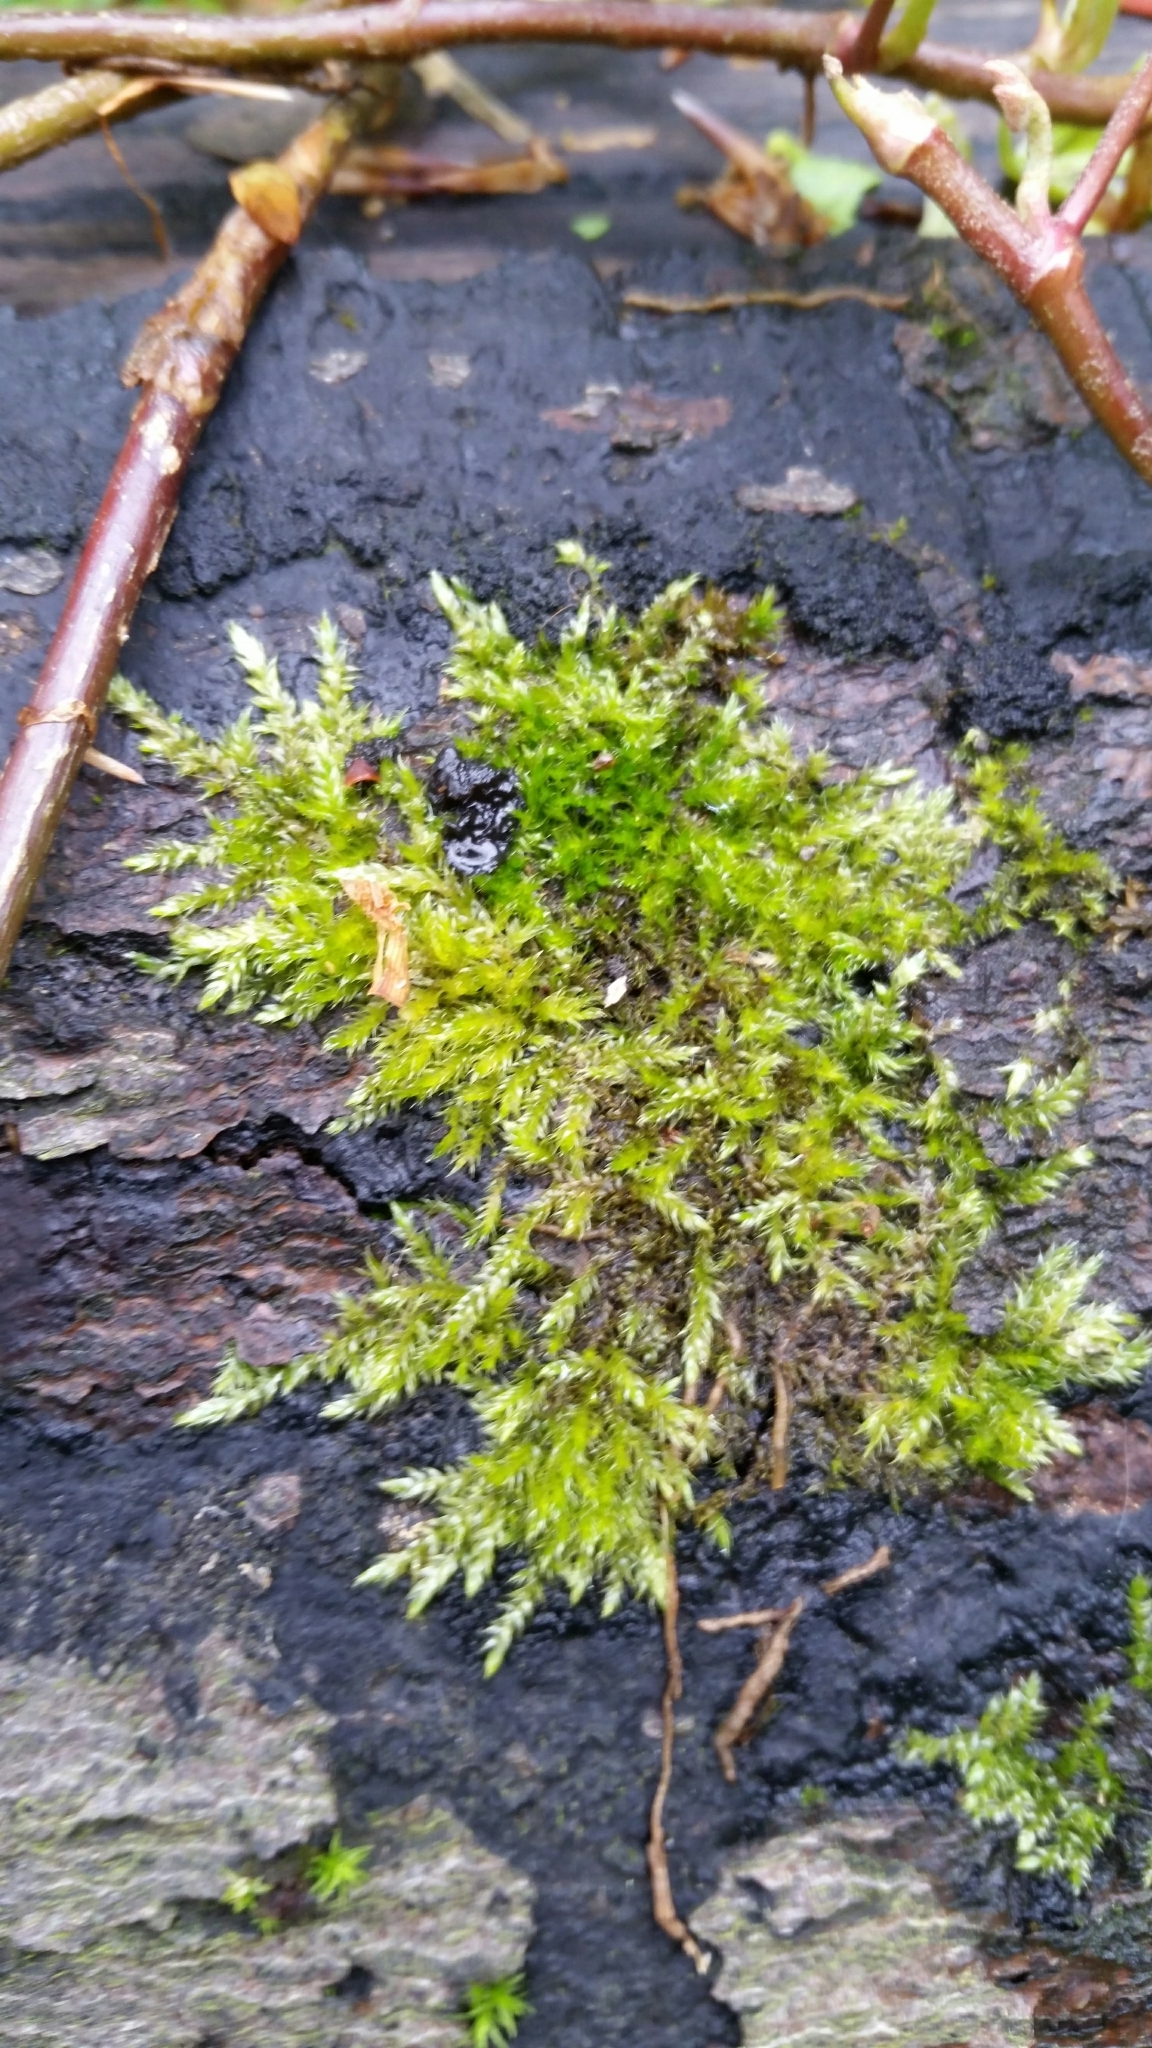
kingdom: Plantae
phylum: Bryophyta
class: Bryopsida
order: Hypnales
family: Brachytheciaceae
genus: Brachythecium
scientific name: Brachythecium rutabulum
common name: Rough-stalked feather-moss
